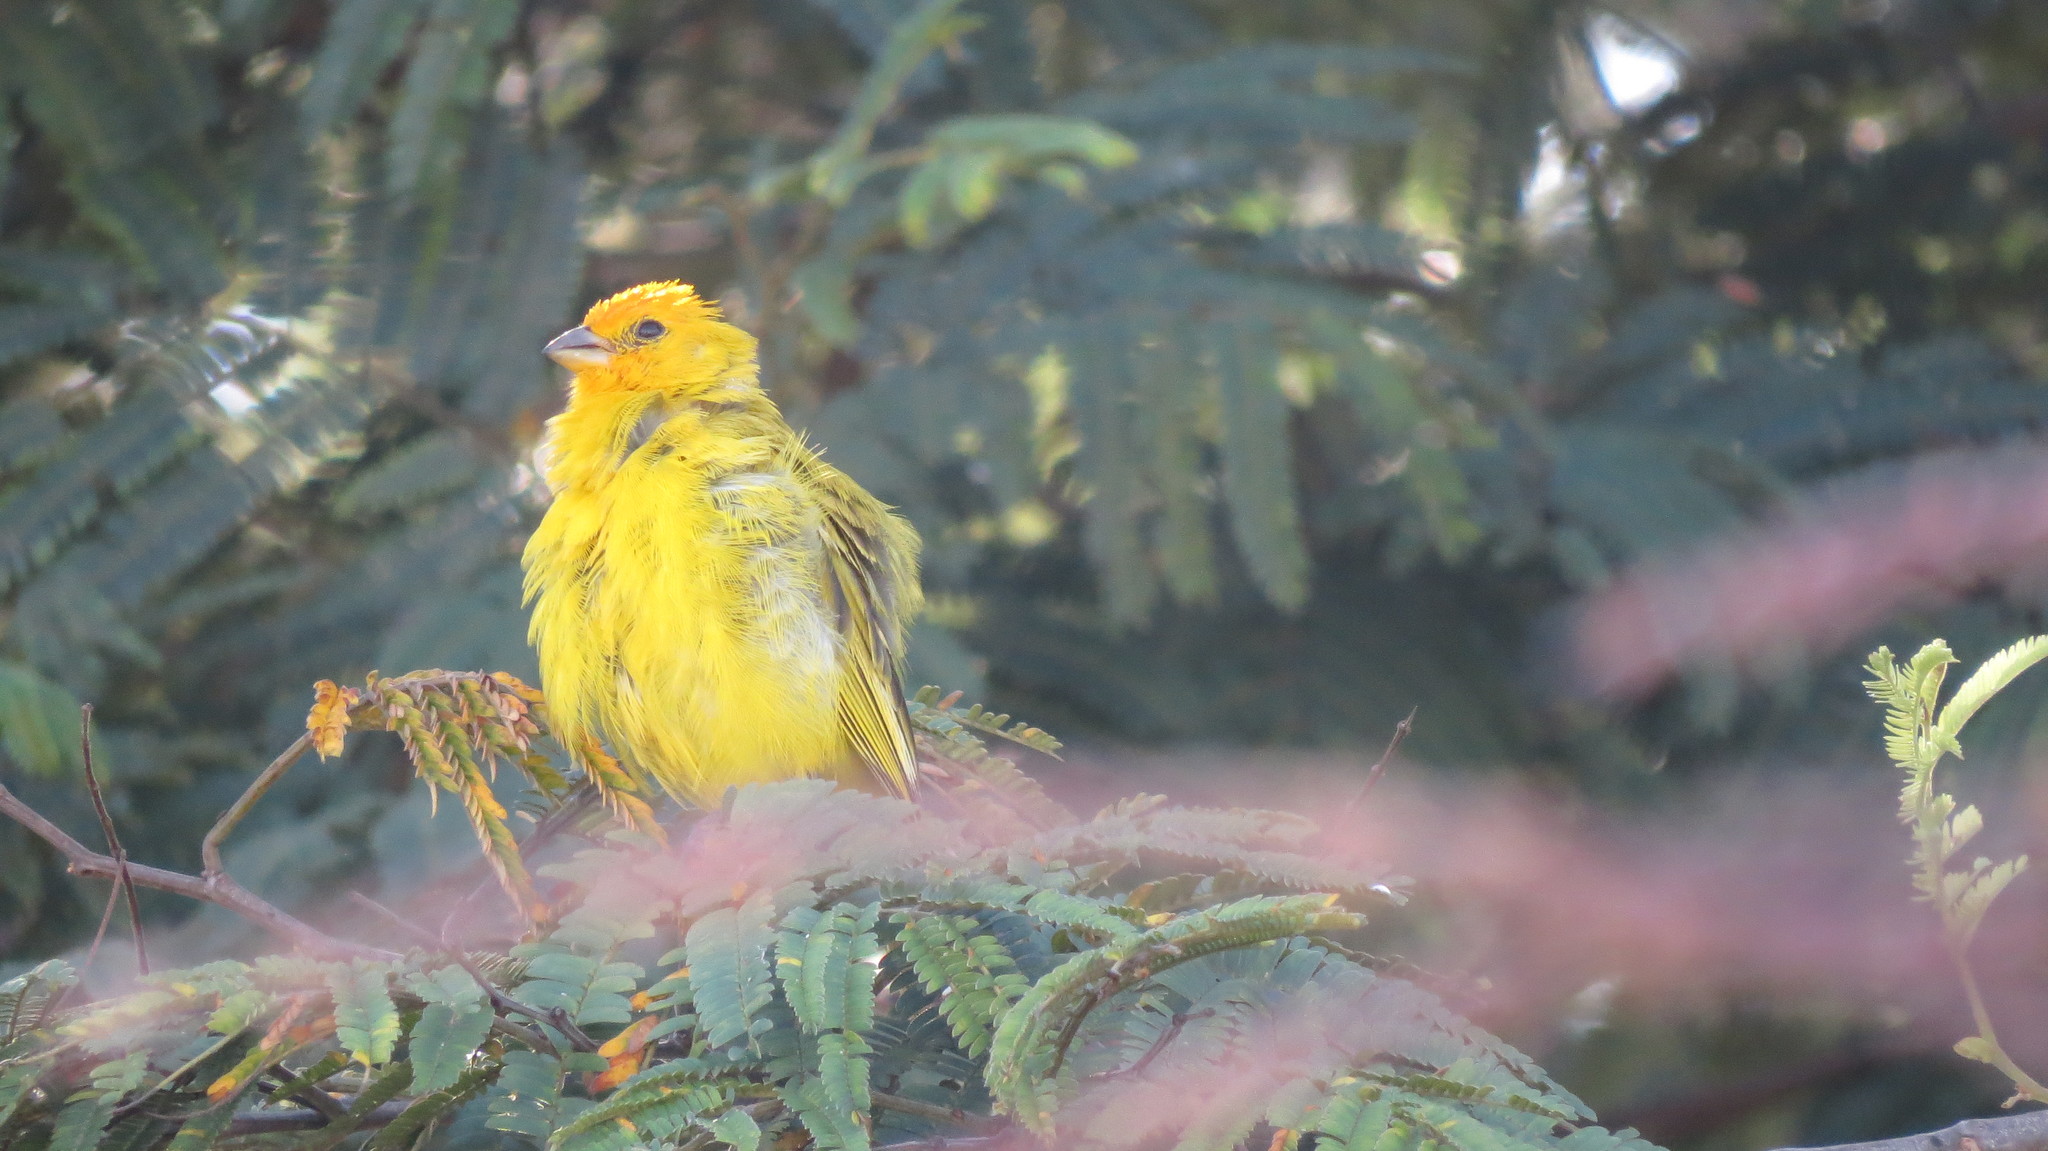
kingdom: Animalia
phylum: Chordata
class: Aves
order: Passeriformes
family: Thraupidae
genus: Sicalis
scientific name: Sicalis flaveola
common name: Saffron finch
